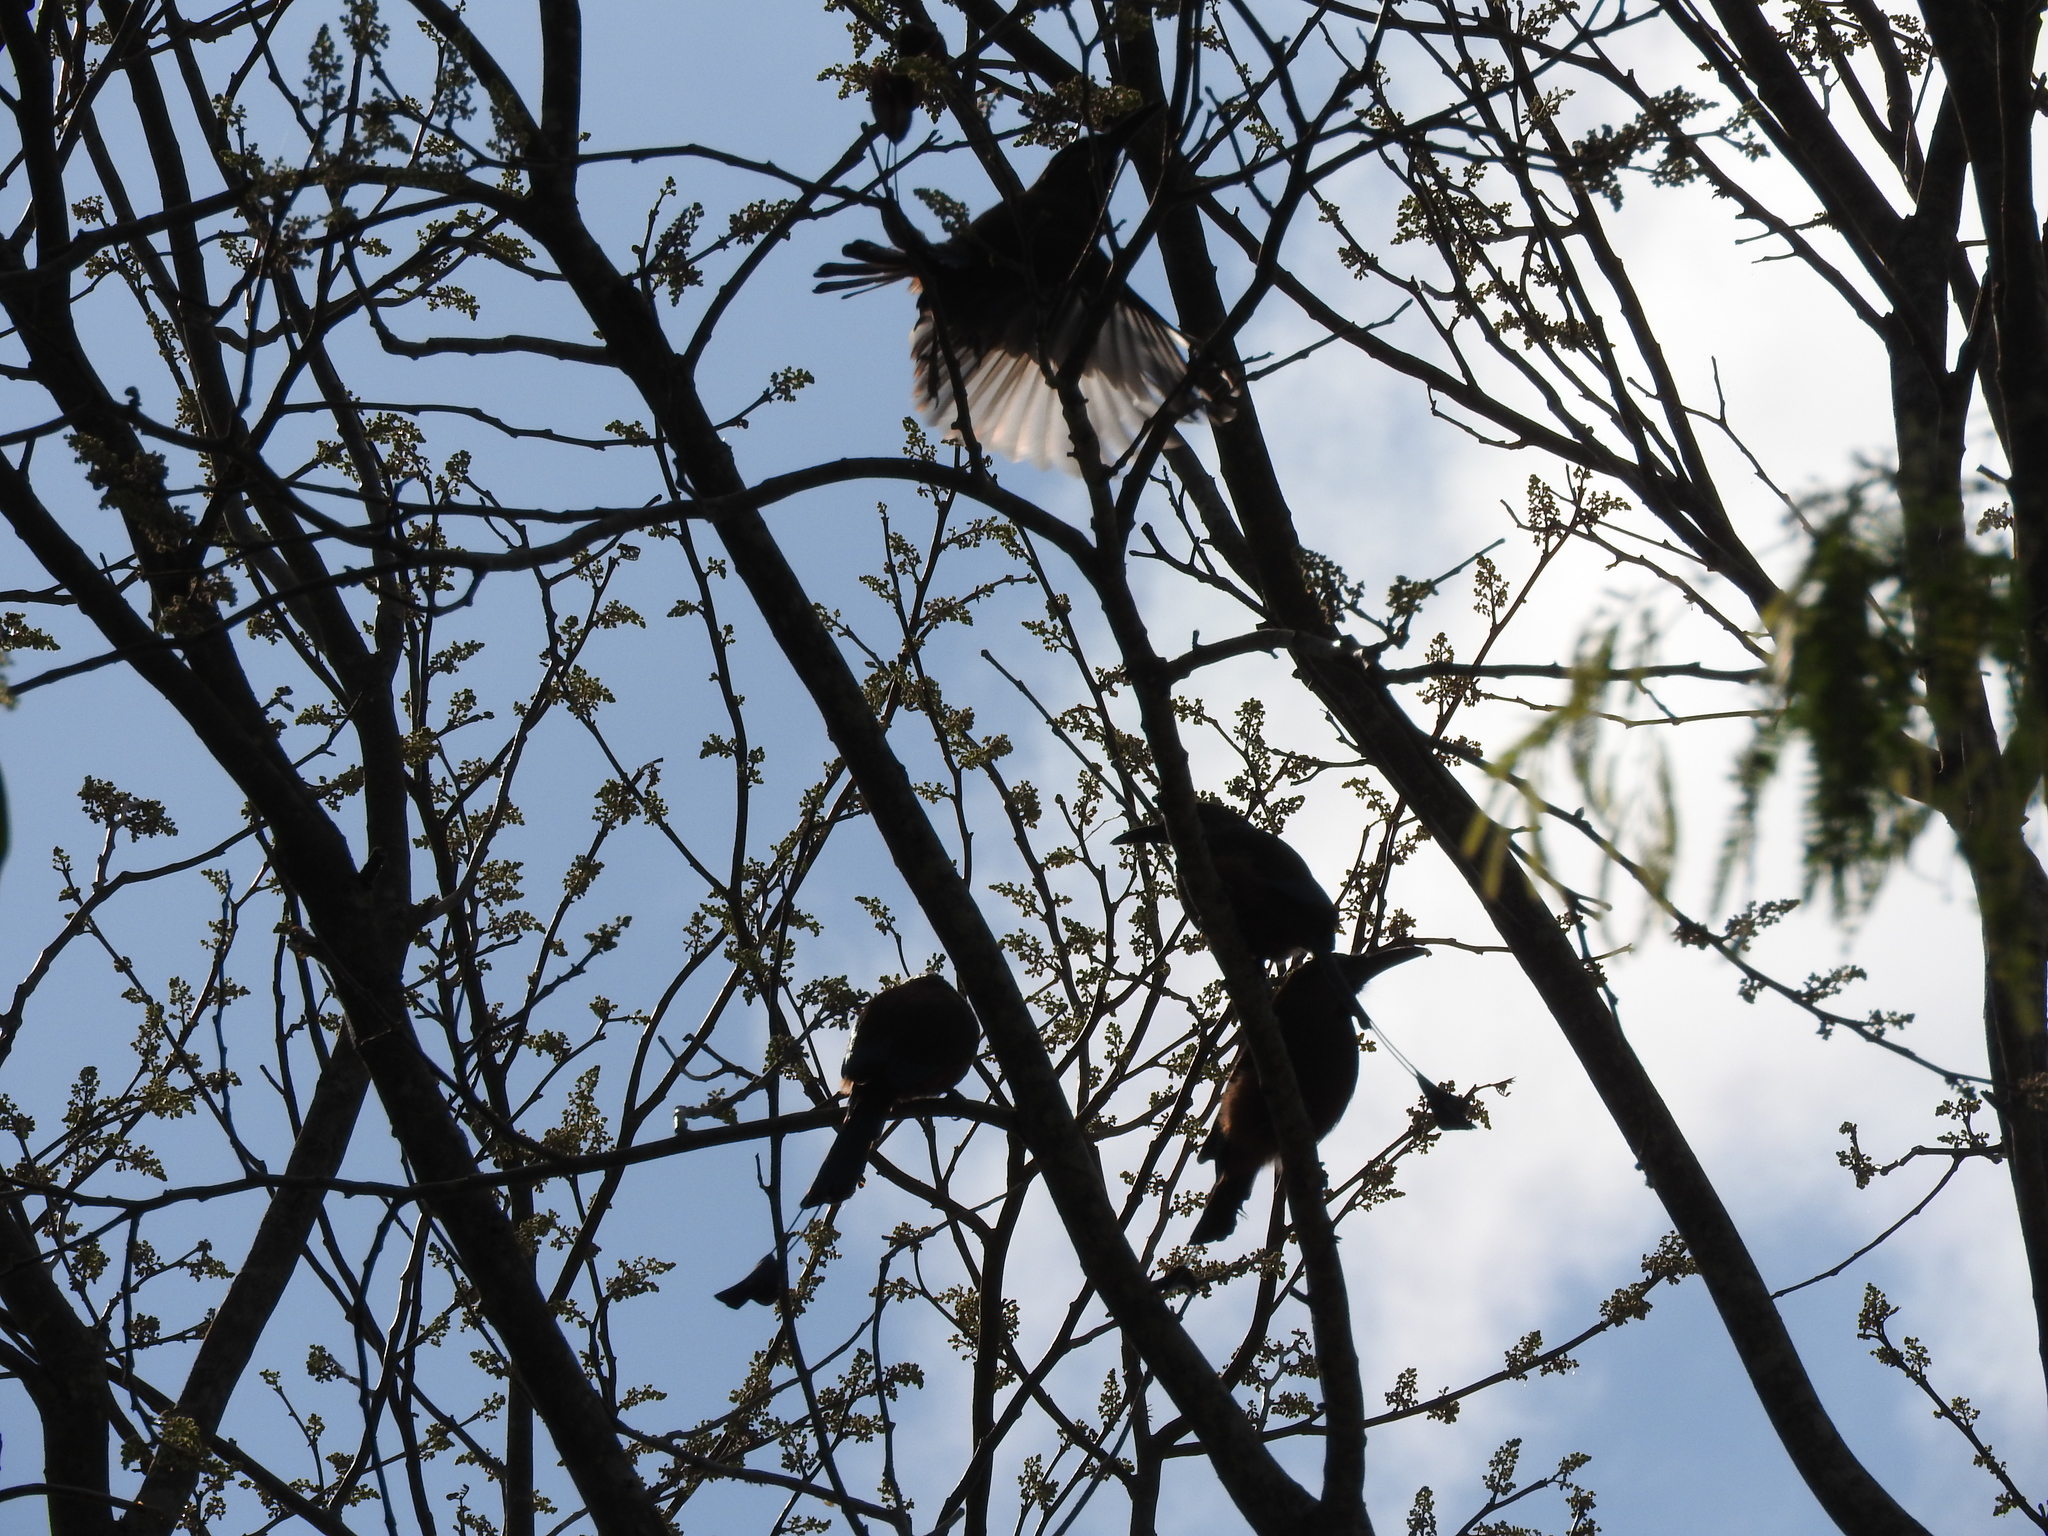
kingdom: Animalia
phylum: Chordata
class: Aves
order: Coraciiformes
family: Momotidae
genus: Eumomota
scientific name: Eumomota superciliosa
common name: Turquoise-browed motmot
